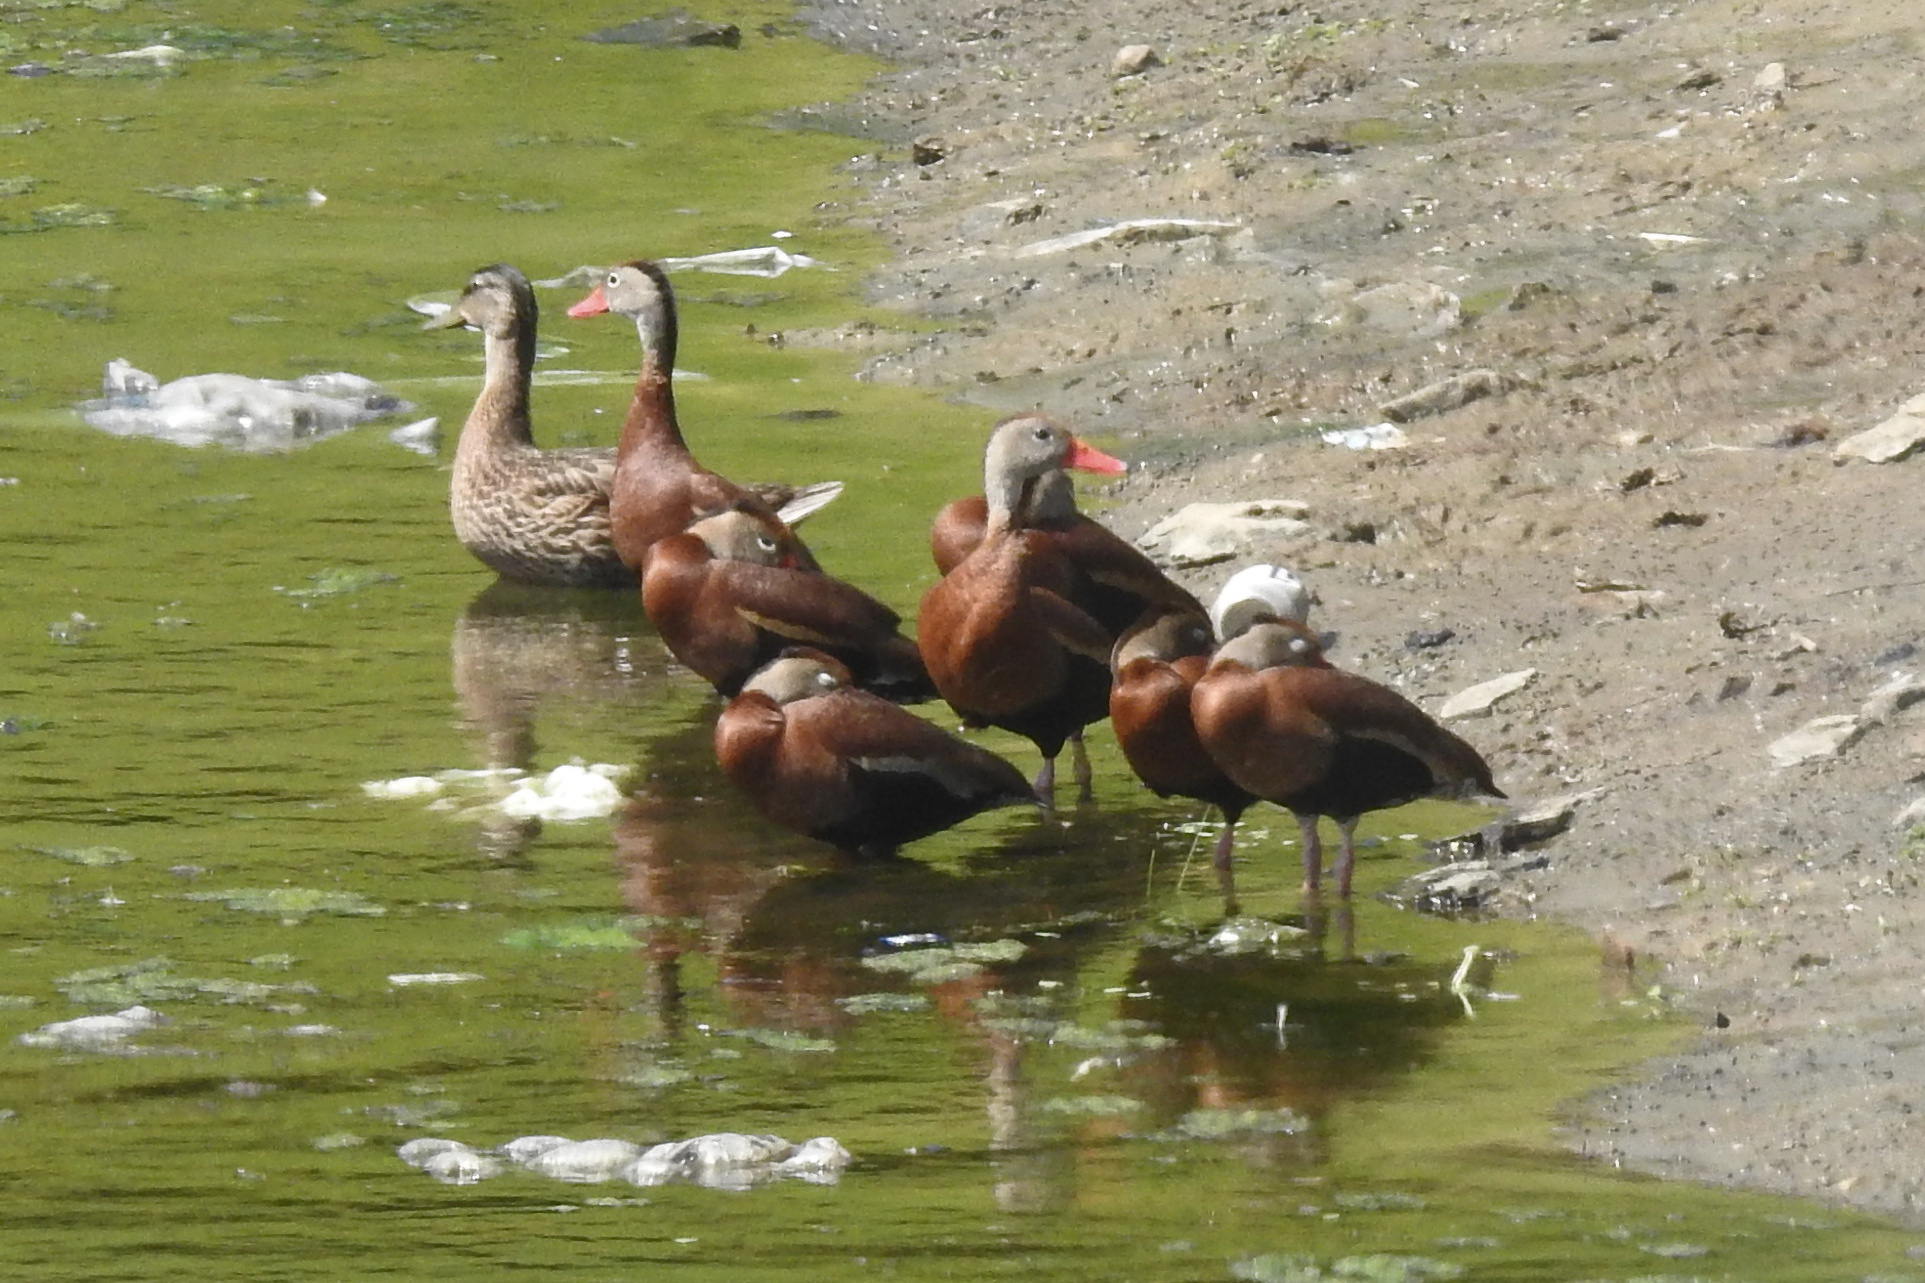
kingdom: Animalia
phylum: Chordata
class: Aves
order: Anseriformes
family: Anatidae
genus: Dendrocygna
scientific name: Dendrocygna autumnalis
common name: Black-bellied whistling duck
